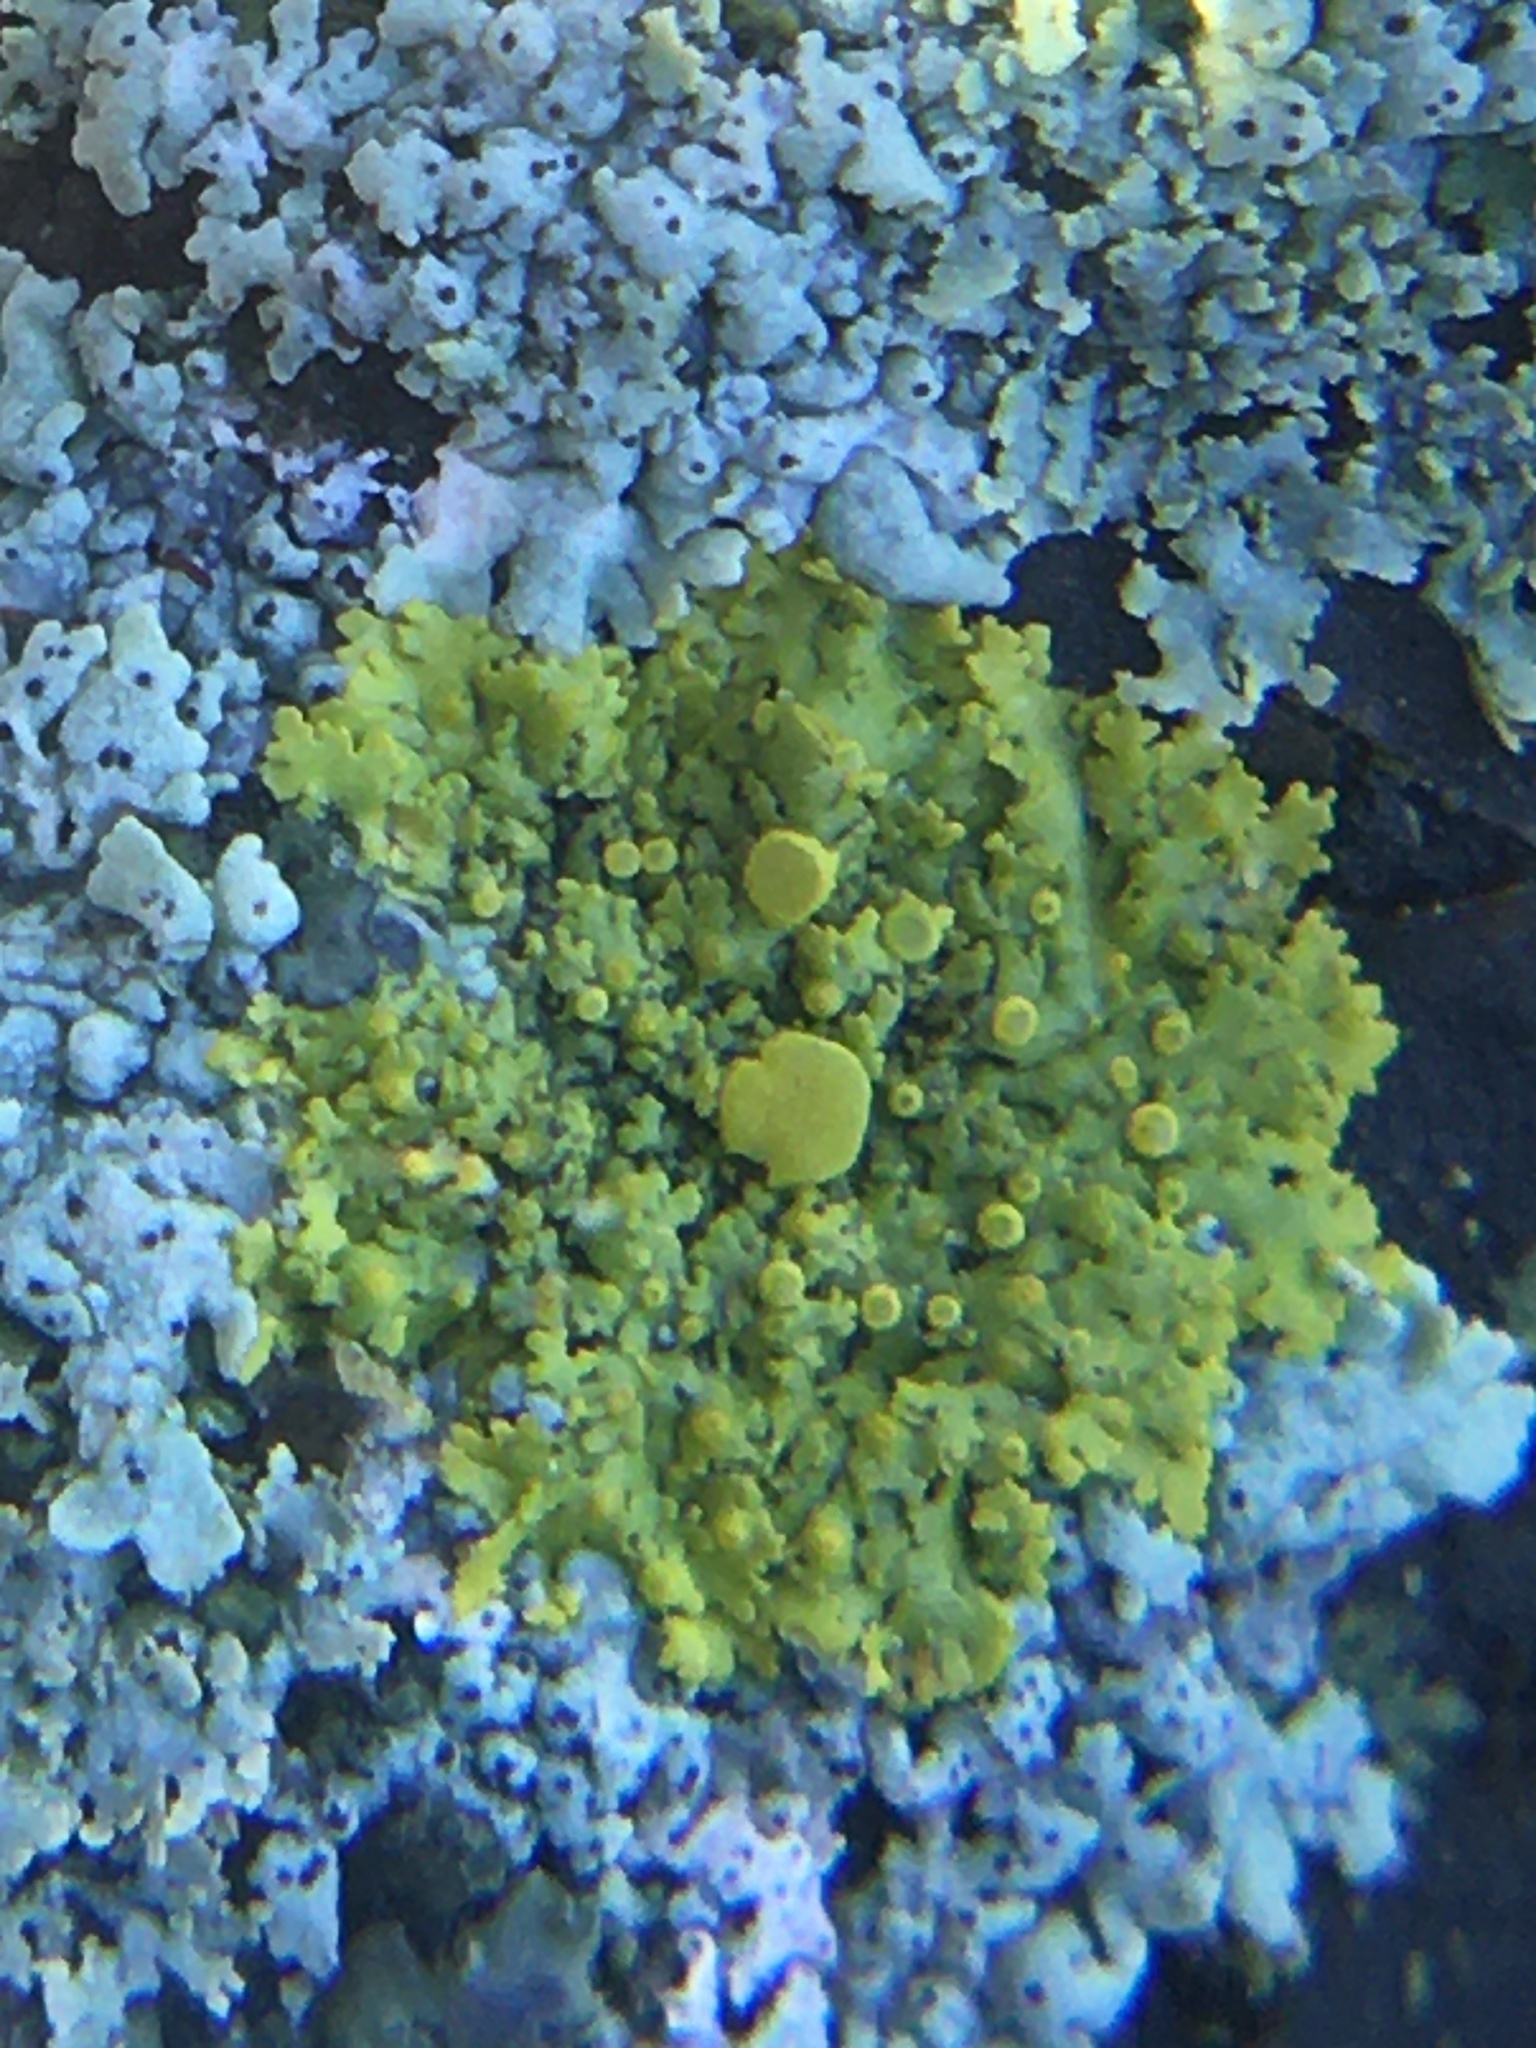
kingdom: Fungi
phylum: Ascomycota
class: Candelariomycetes
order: Candelariales
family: Candelariaceae
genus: Candelaria
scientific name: Candelaria fibrosa
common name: Fringed candleflame lichen
